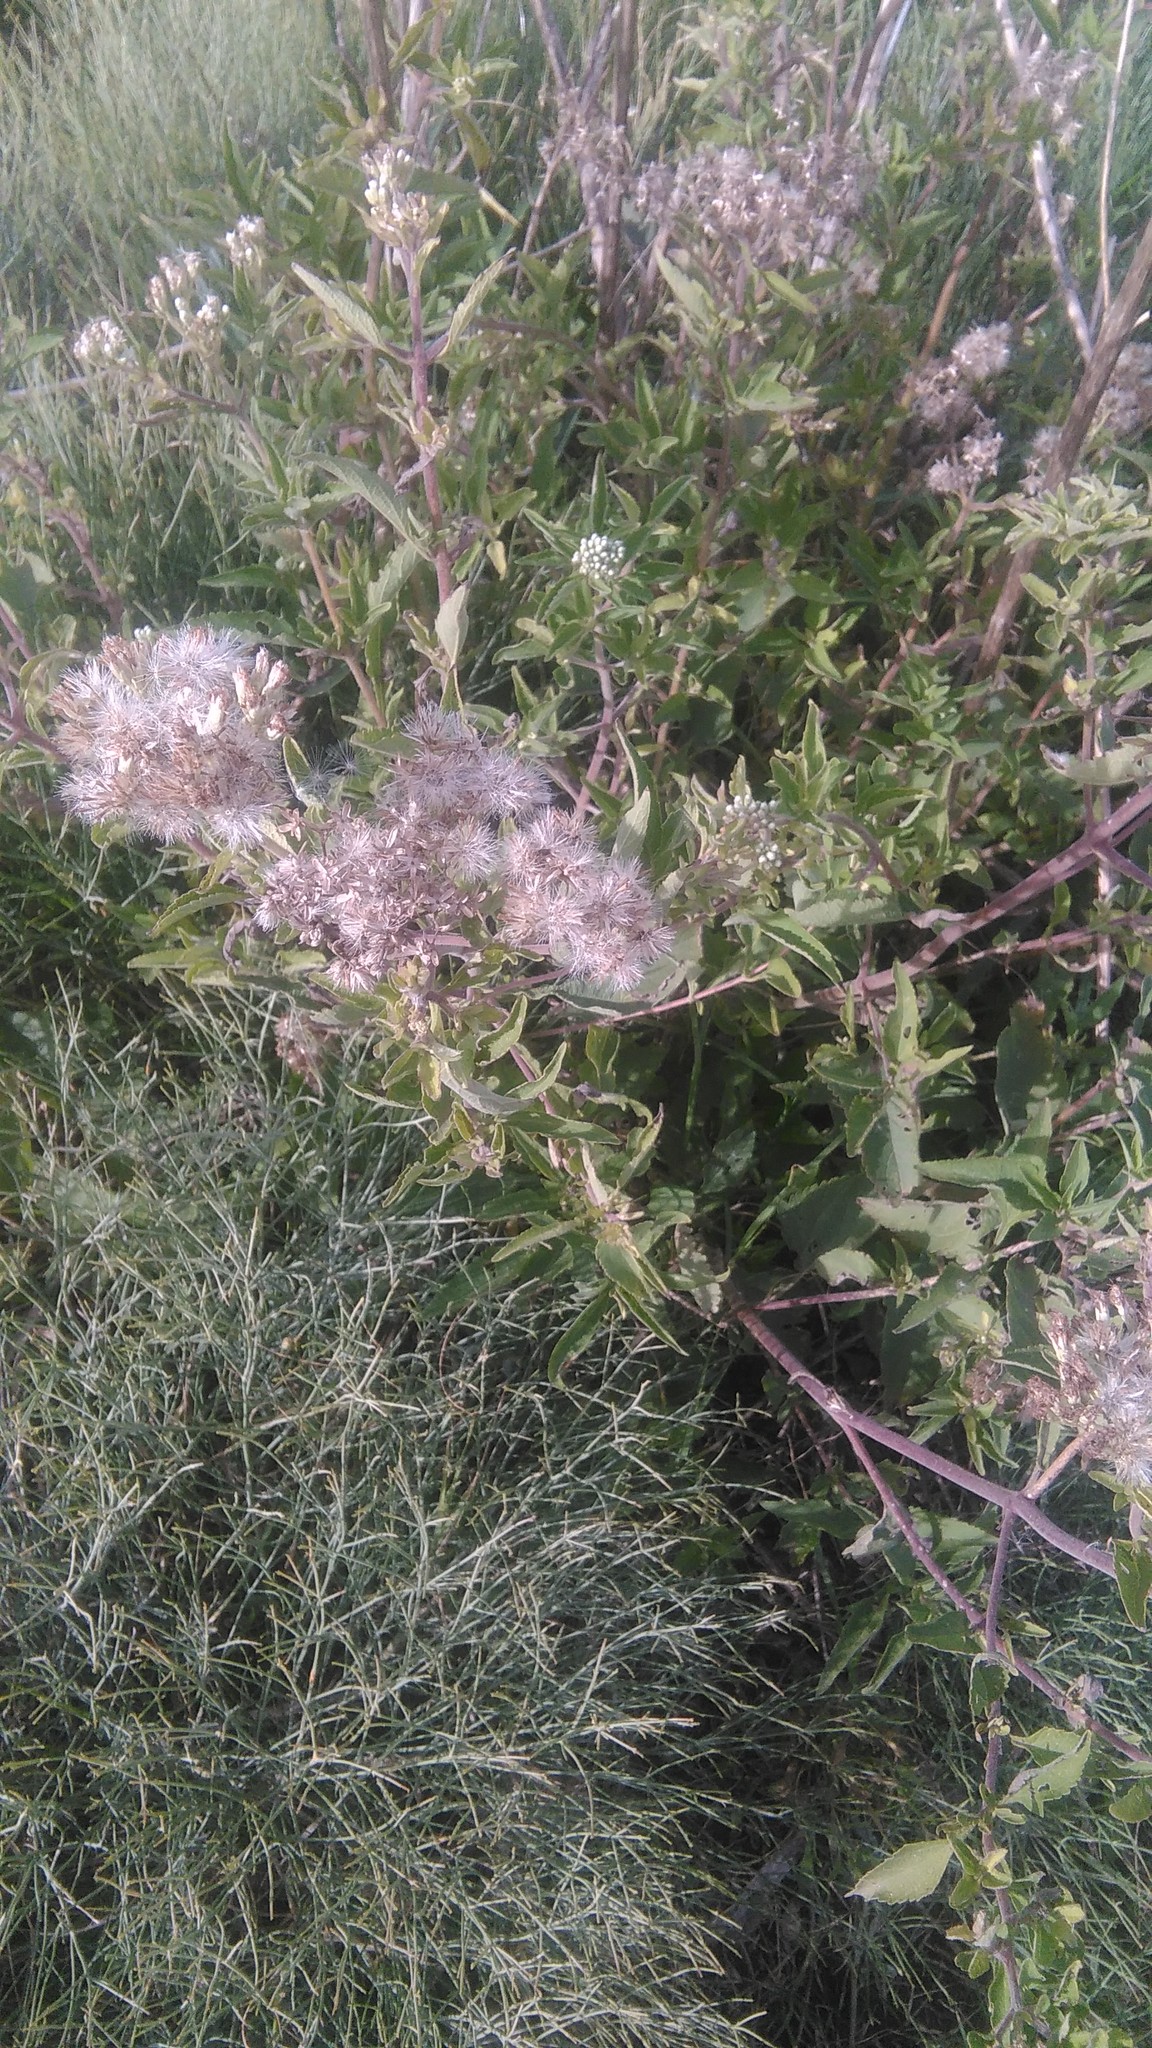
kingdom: Plantae
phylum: Tracheophyta
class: Magnoliopsida
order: Asterales
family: Asteraceae
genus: Austroeupatorium
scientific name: Austroeupatorium inulifolium
